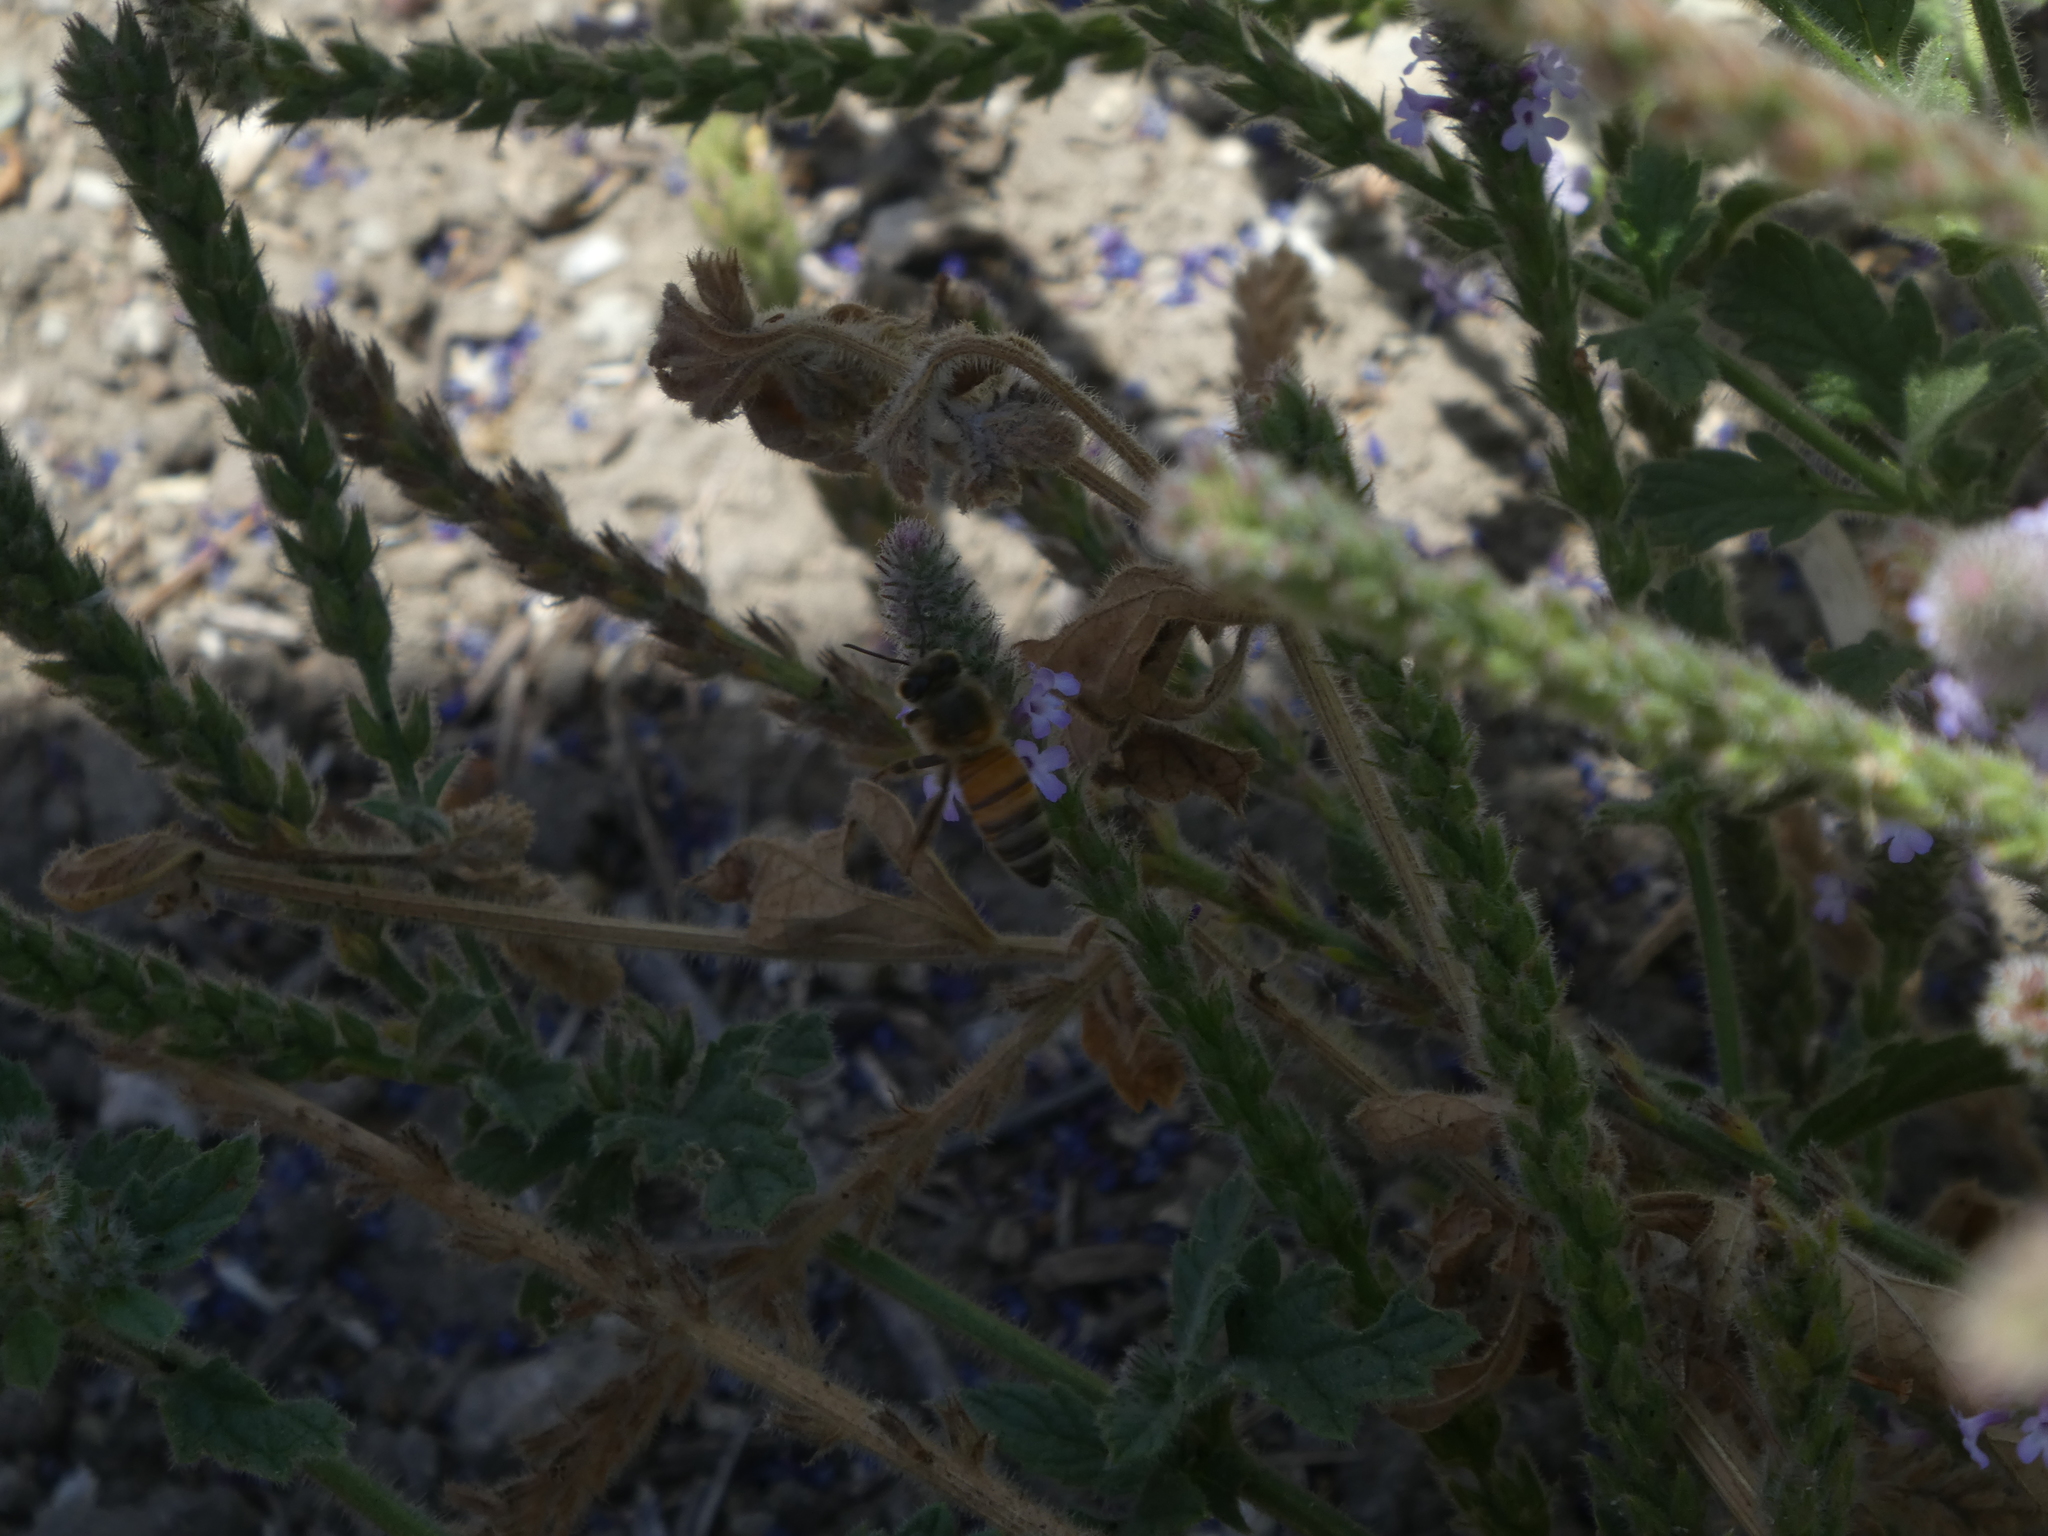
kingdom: Animalia
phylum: Arthropoda
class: Insecta
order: Hymenoptera
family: Apidae
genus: Apis
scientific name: Apis mellifera
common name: Honey bee
